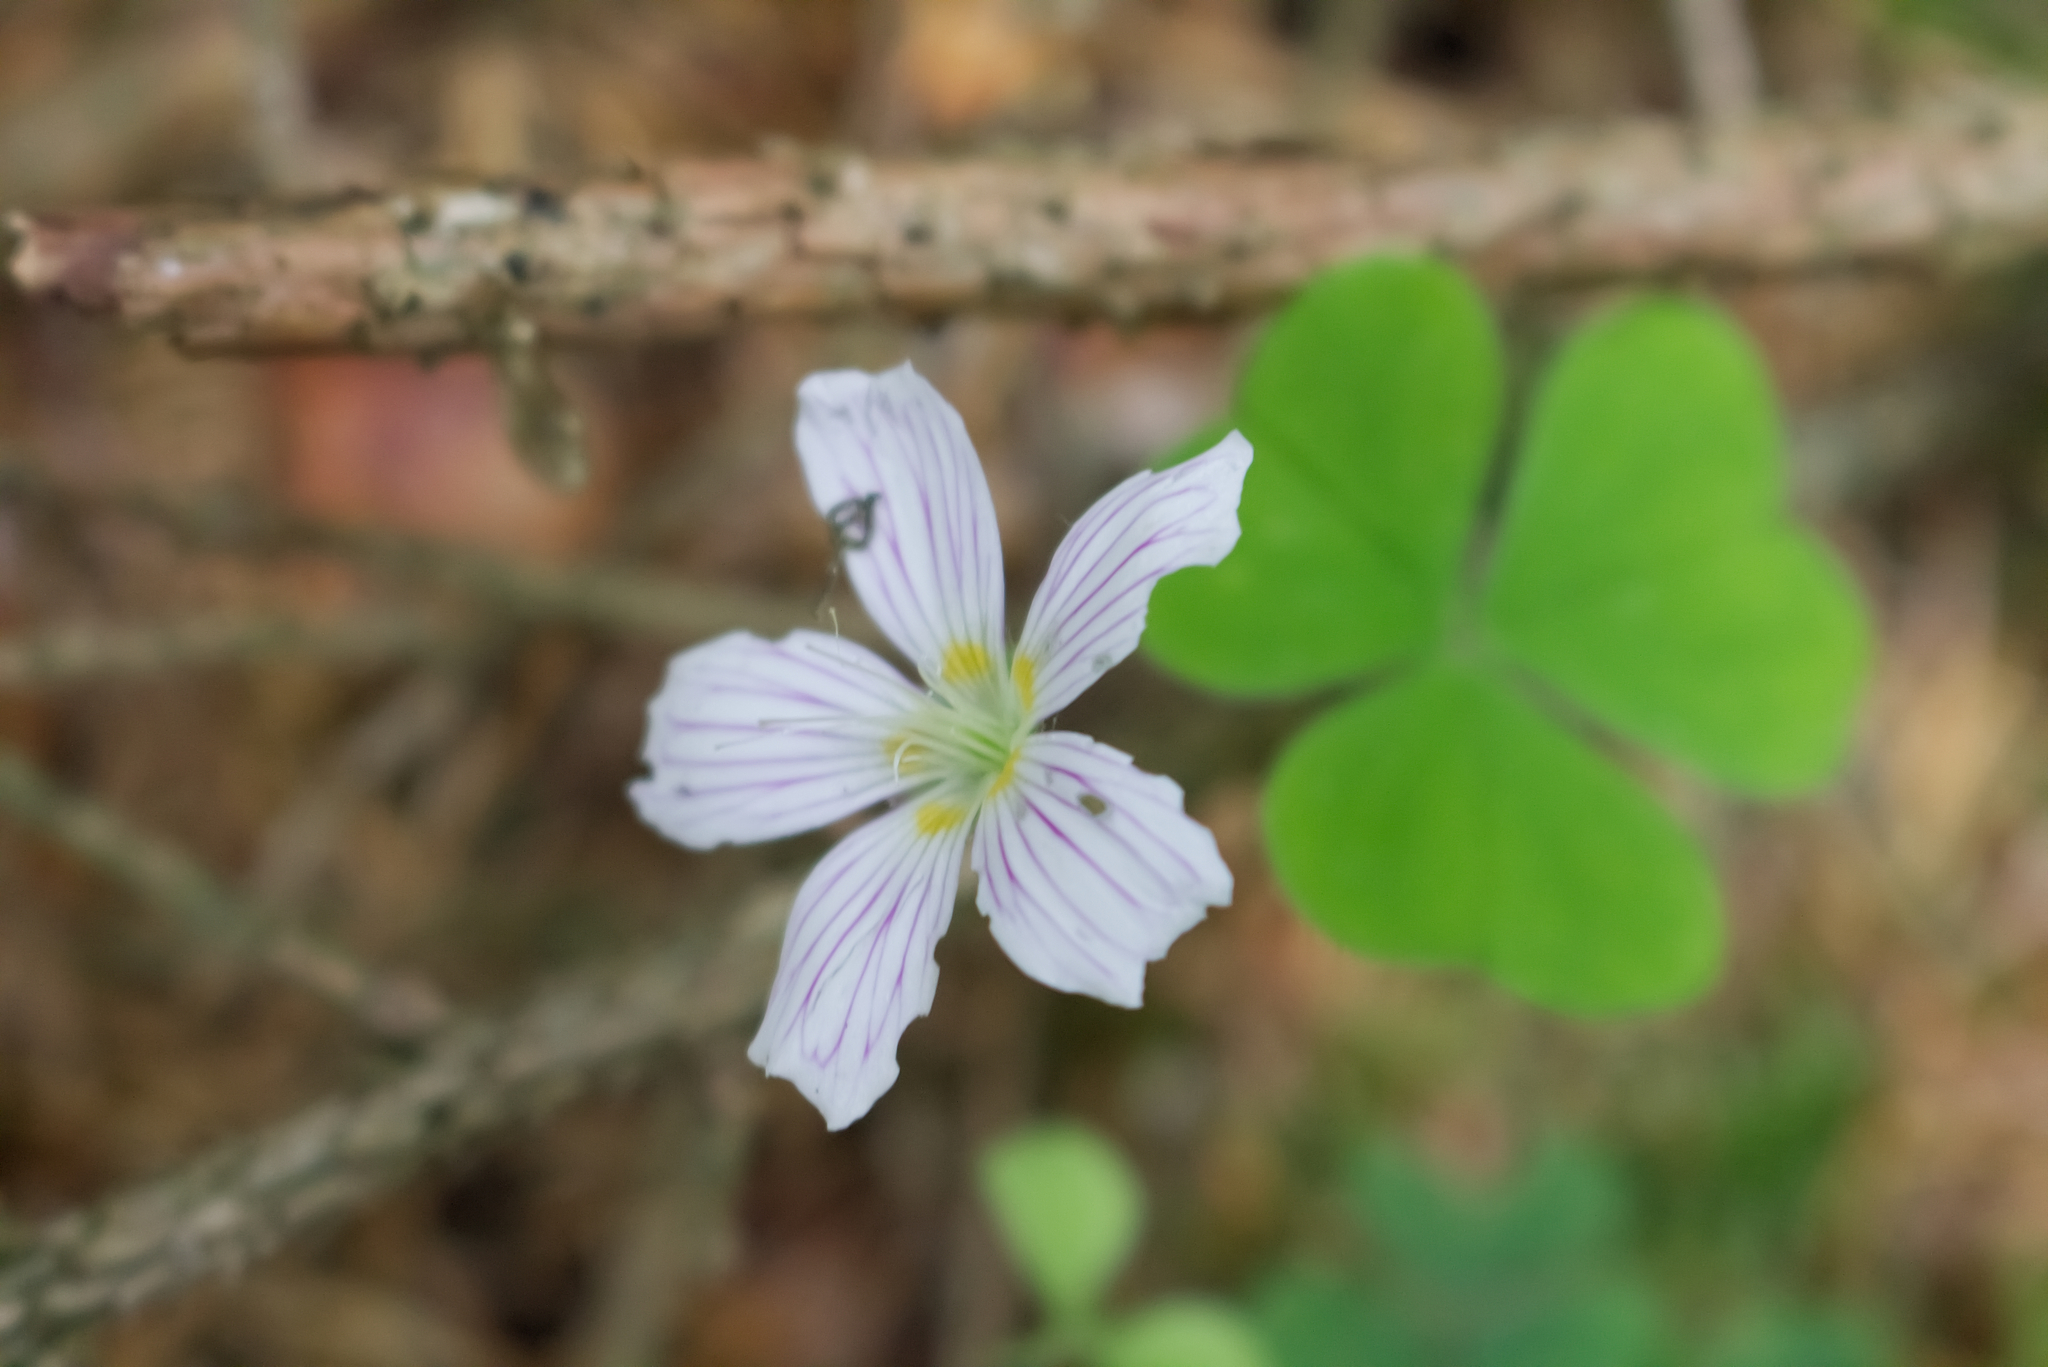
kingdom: Plantae
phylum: Tracheophyta
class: Magnoliopsida
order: Oxalidales
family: Oxalidaceae
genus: Oxalis
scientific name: Oxalis acetosella
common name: Wood-sorrel
